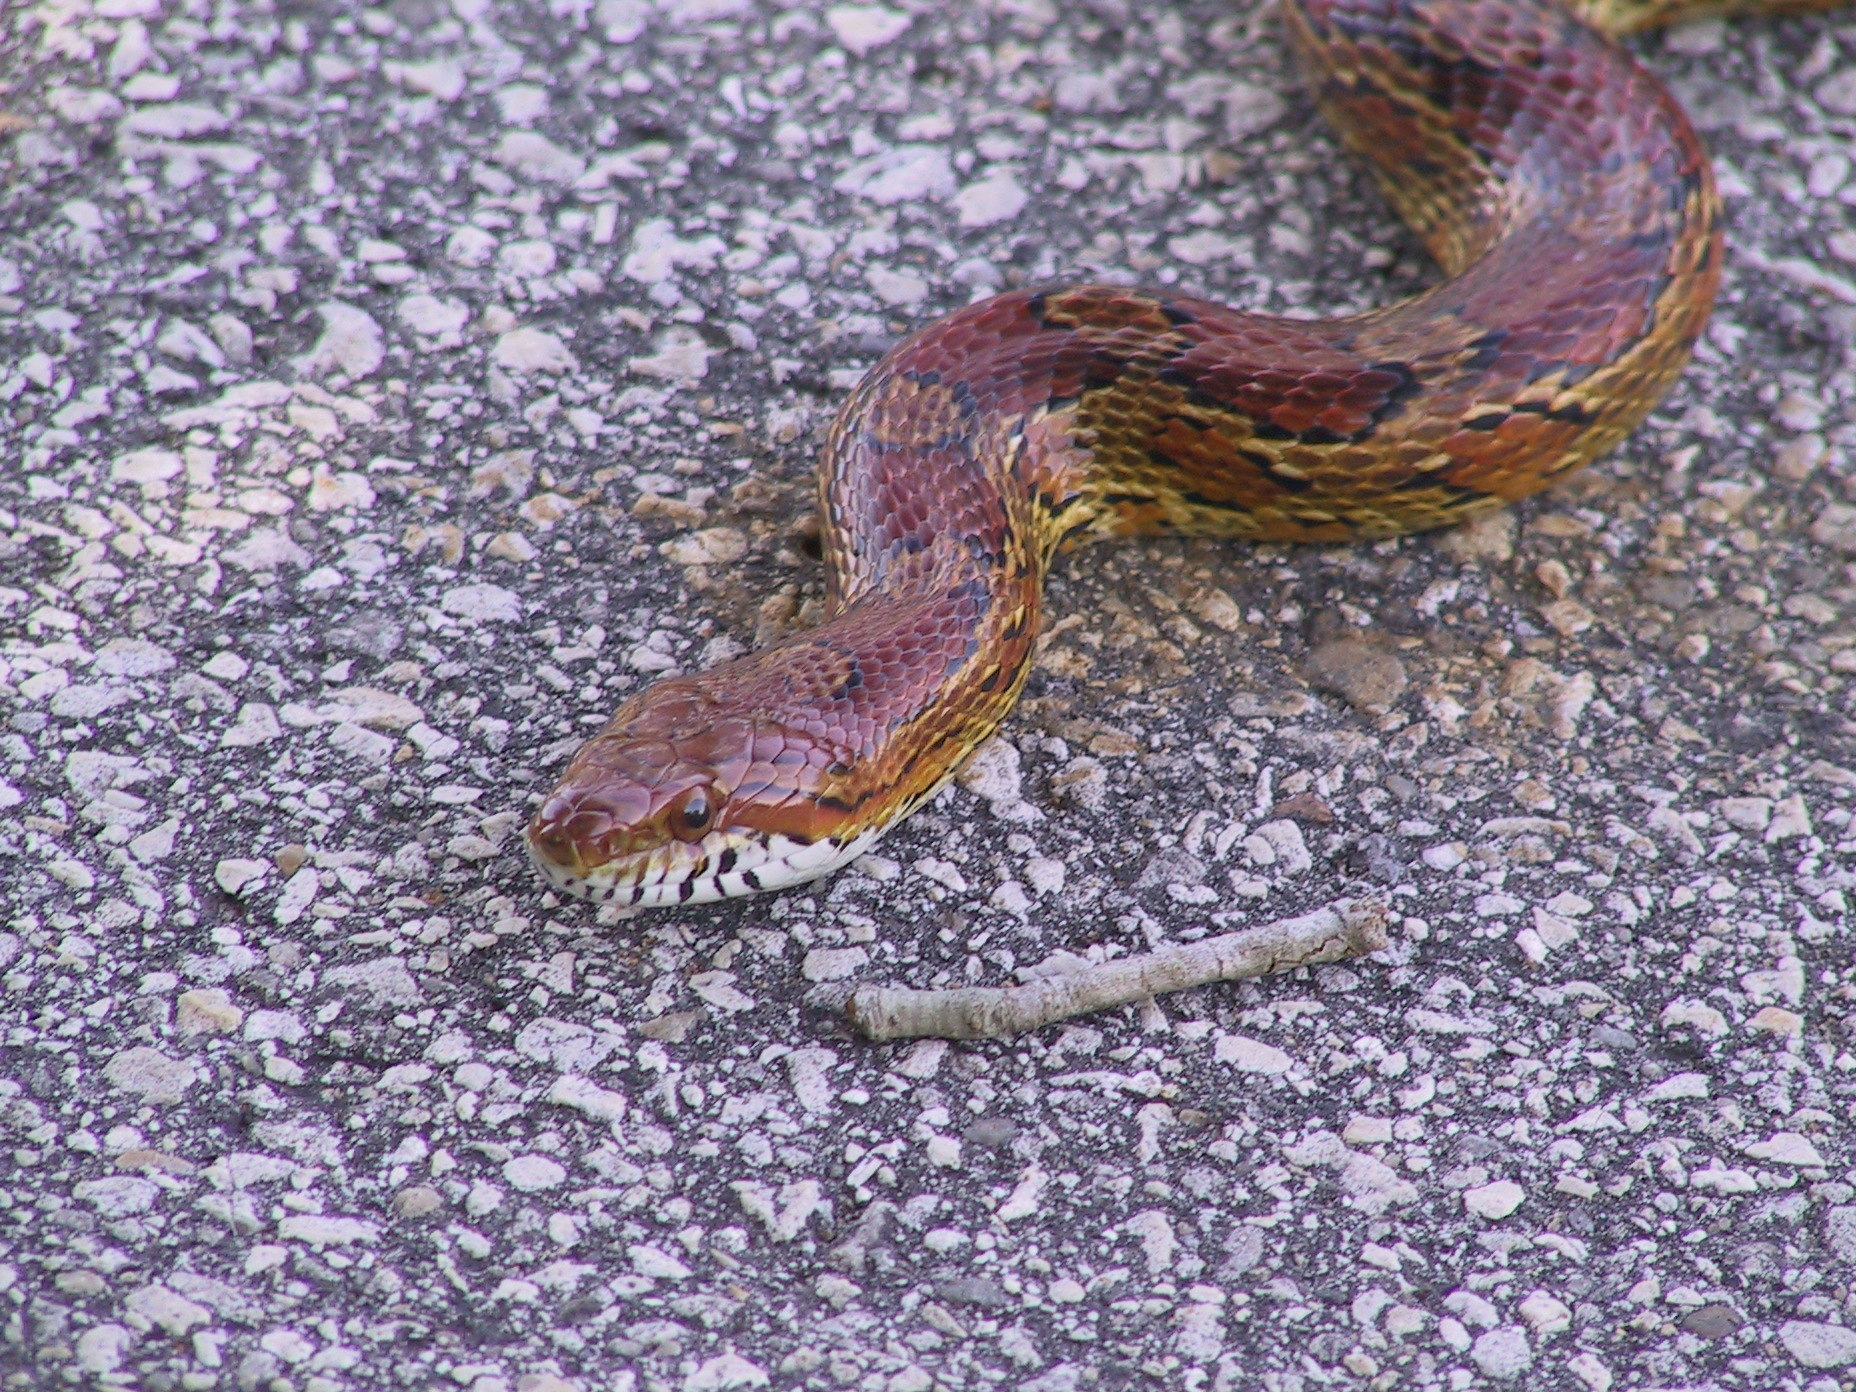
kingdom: Animalia
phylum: Chordata
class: Squamata
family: Colubridae
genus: Pantherophis
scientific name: Pantherophis guttatus
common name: Red cornsnake
